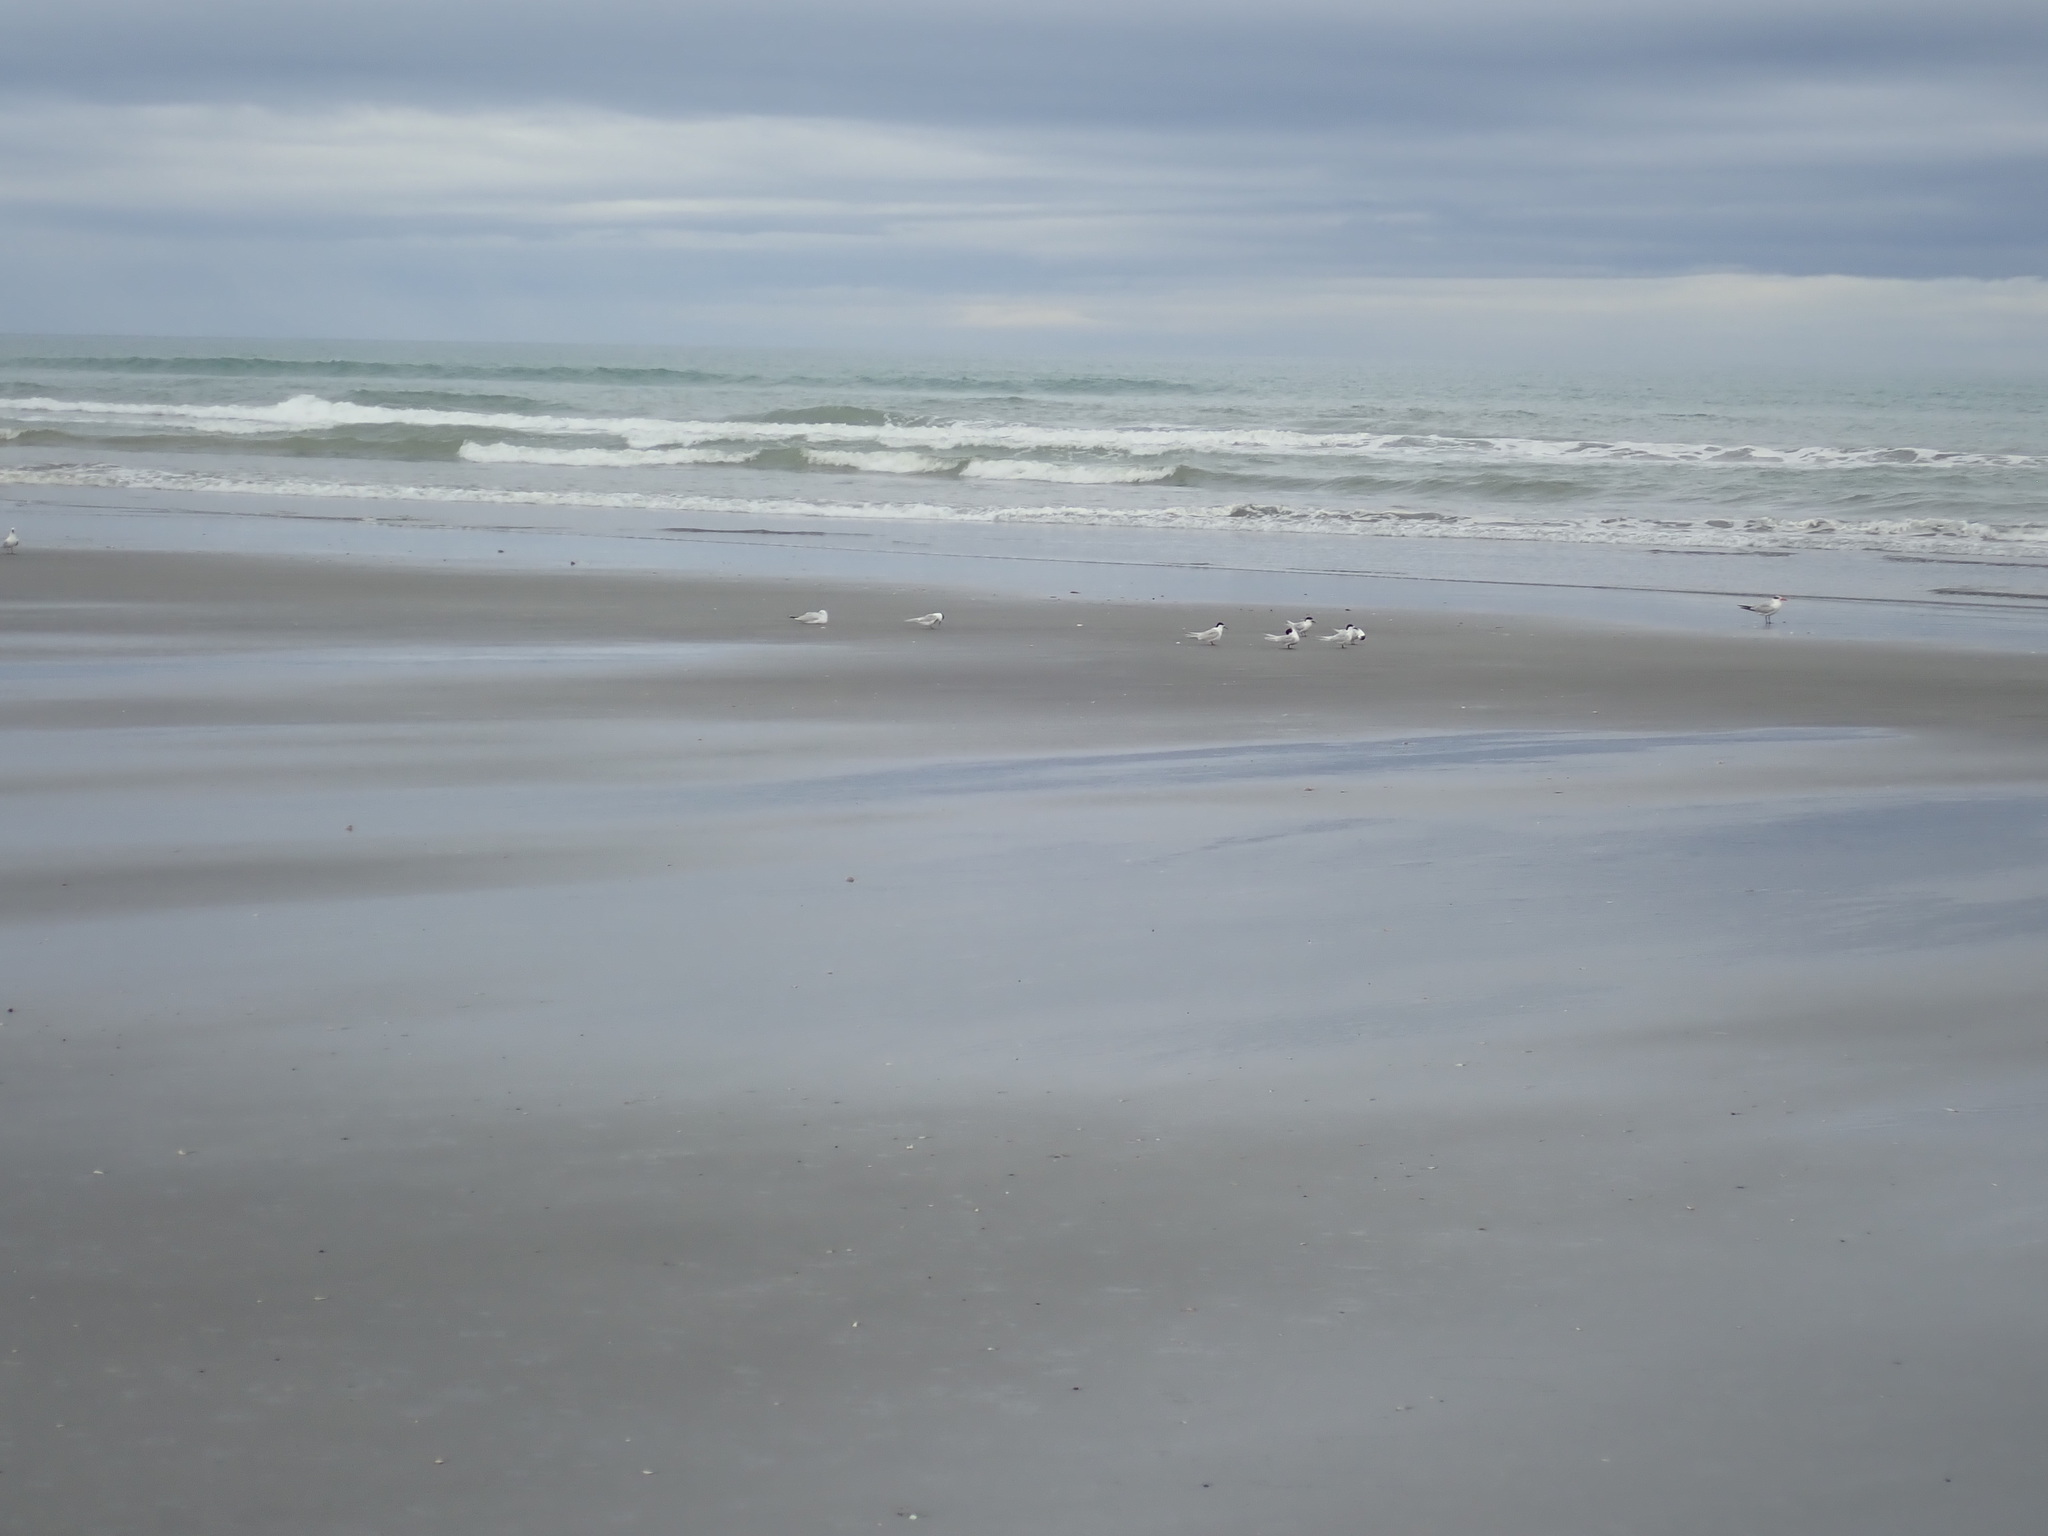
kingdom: Animalia
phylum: Chordata
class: Aves
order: Charadriiformes
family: Laridae
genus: Sterna
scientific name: Sterna striata
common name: White-fronted tern
